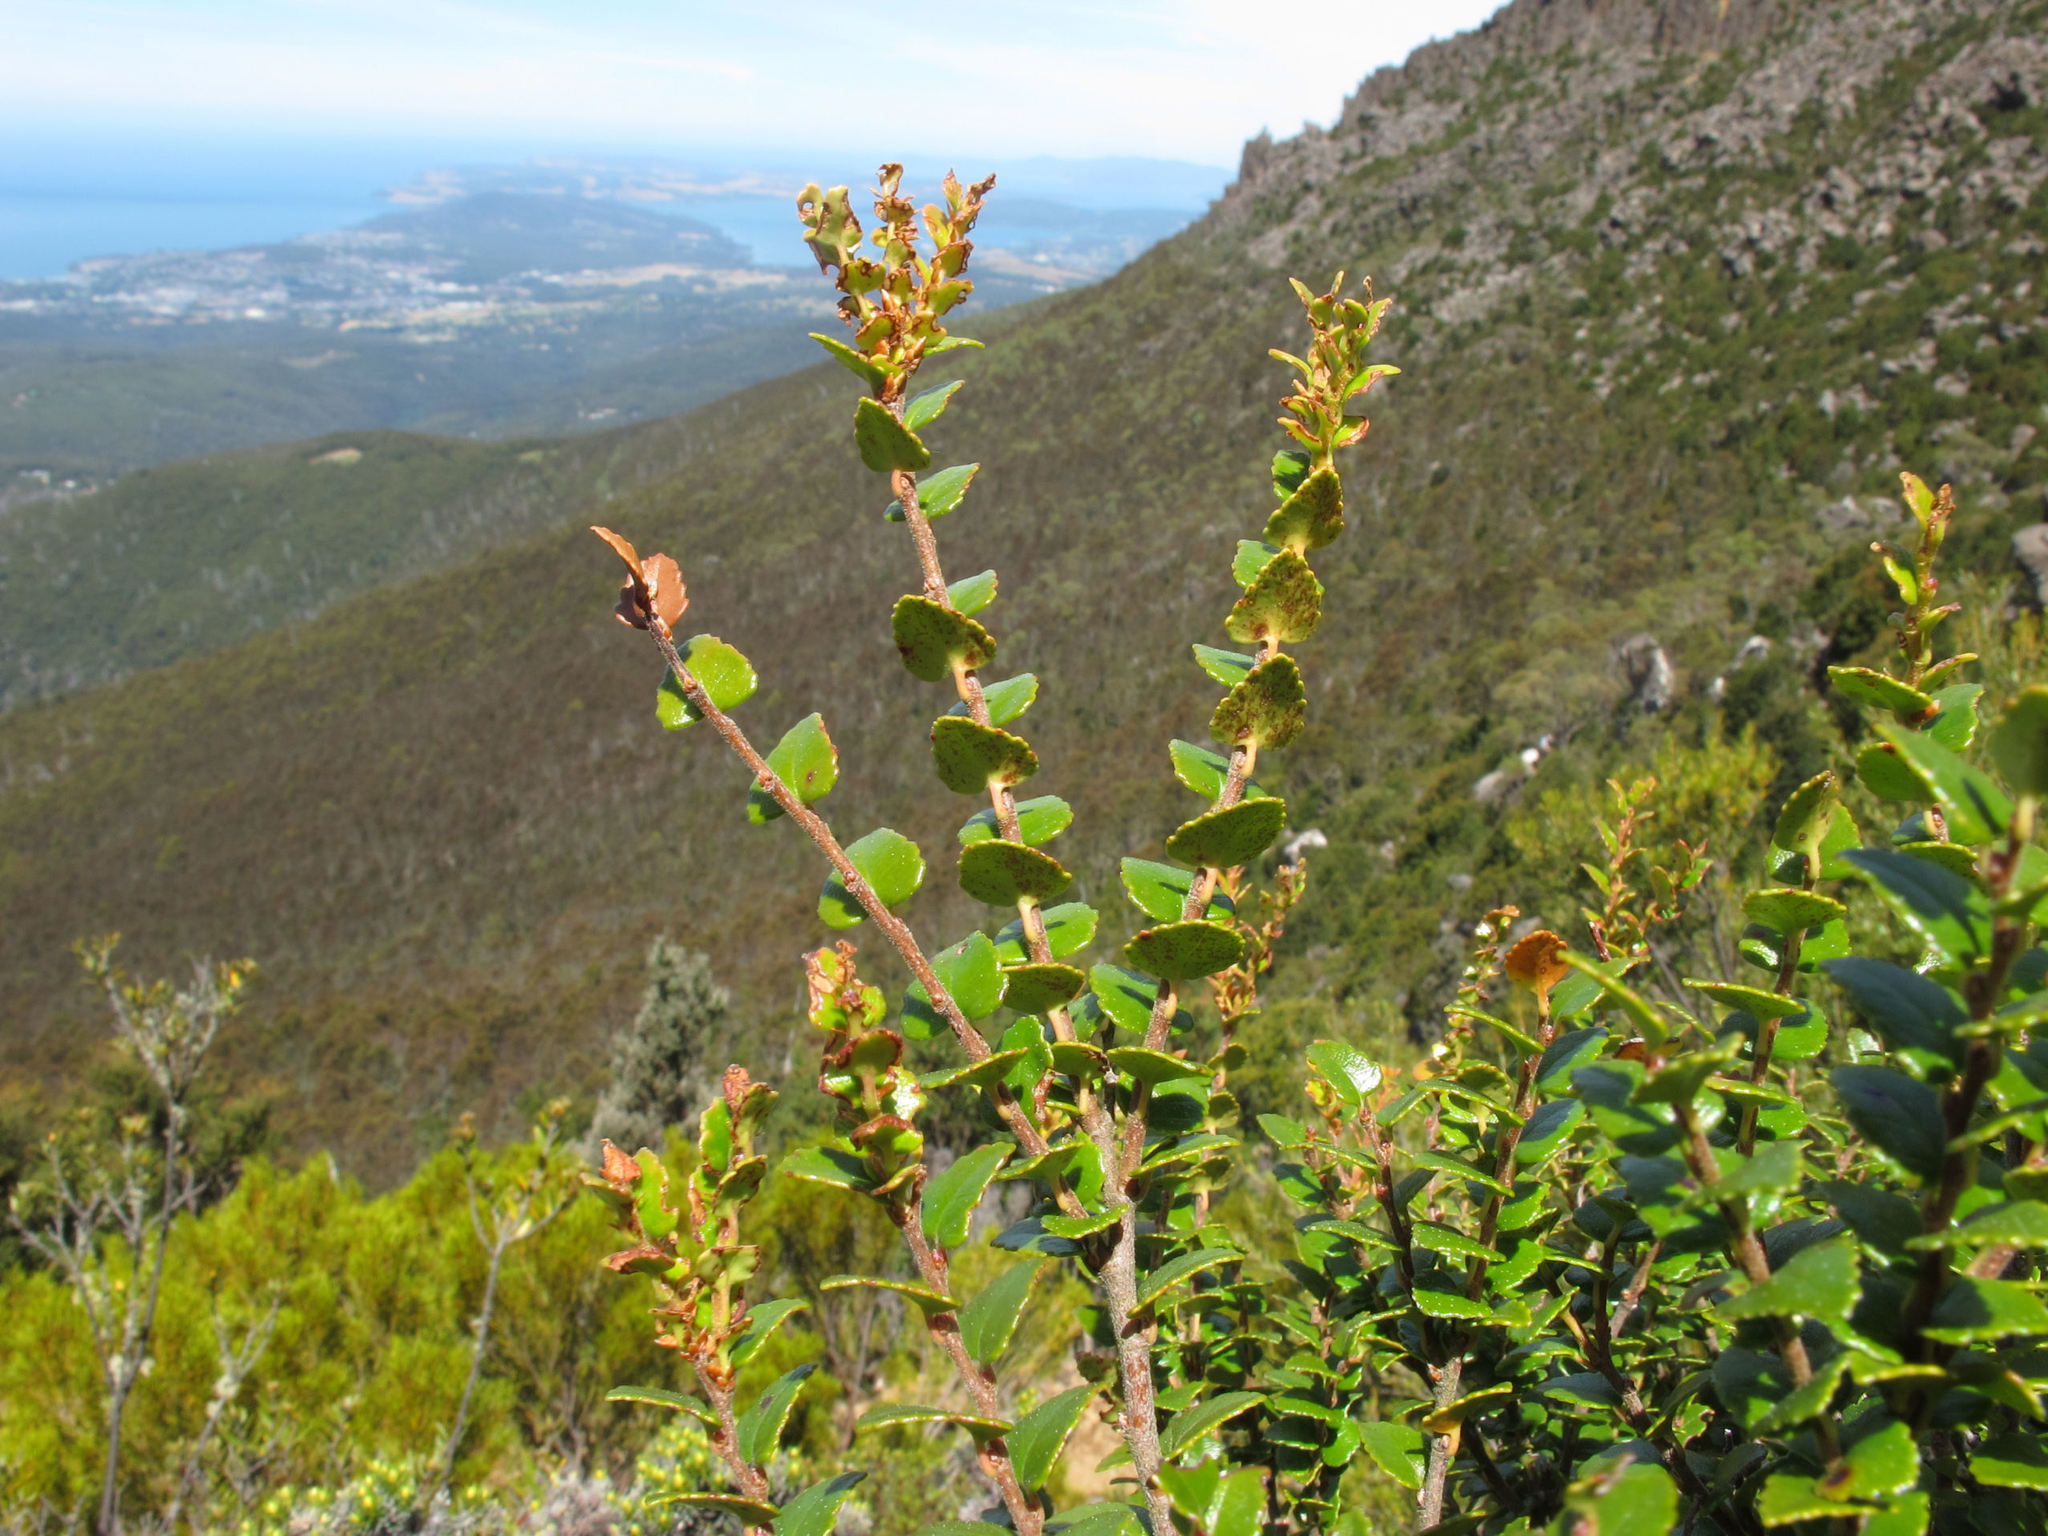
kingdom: Plantae
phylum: Tracheophyta
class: Magnoliopsida
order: Fagales
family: Nothofagaceae
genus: Nothofagus
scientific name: Nothofagus cunninghamii
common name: Myrtle beech
